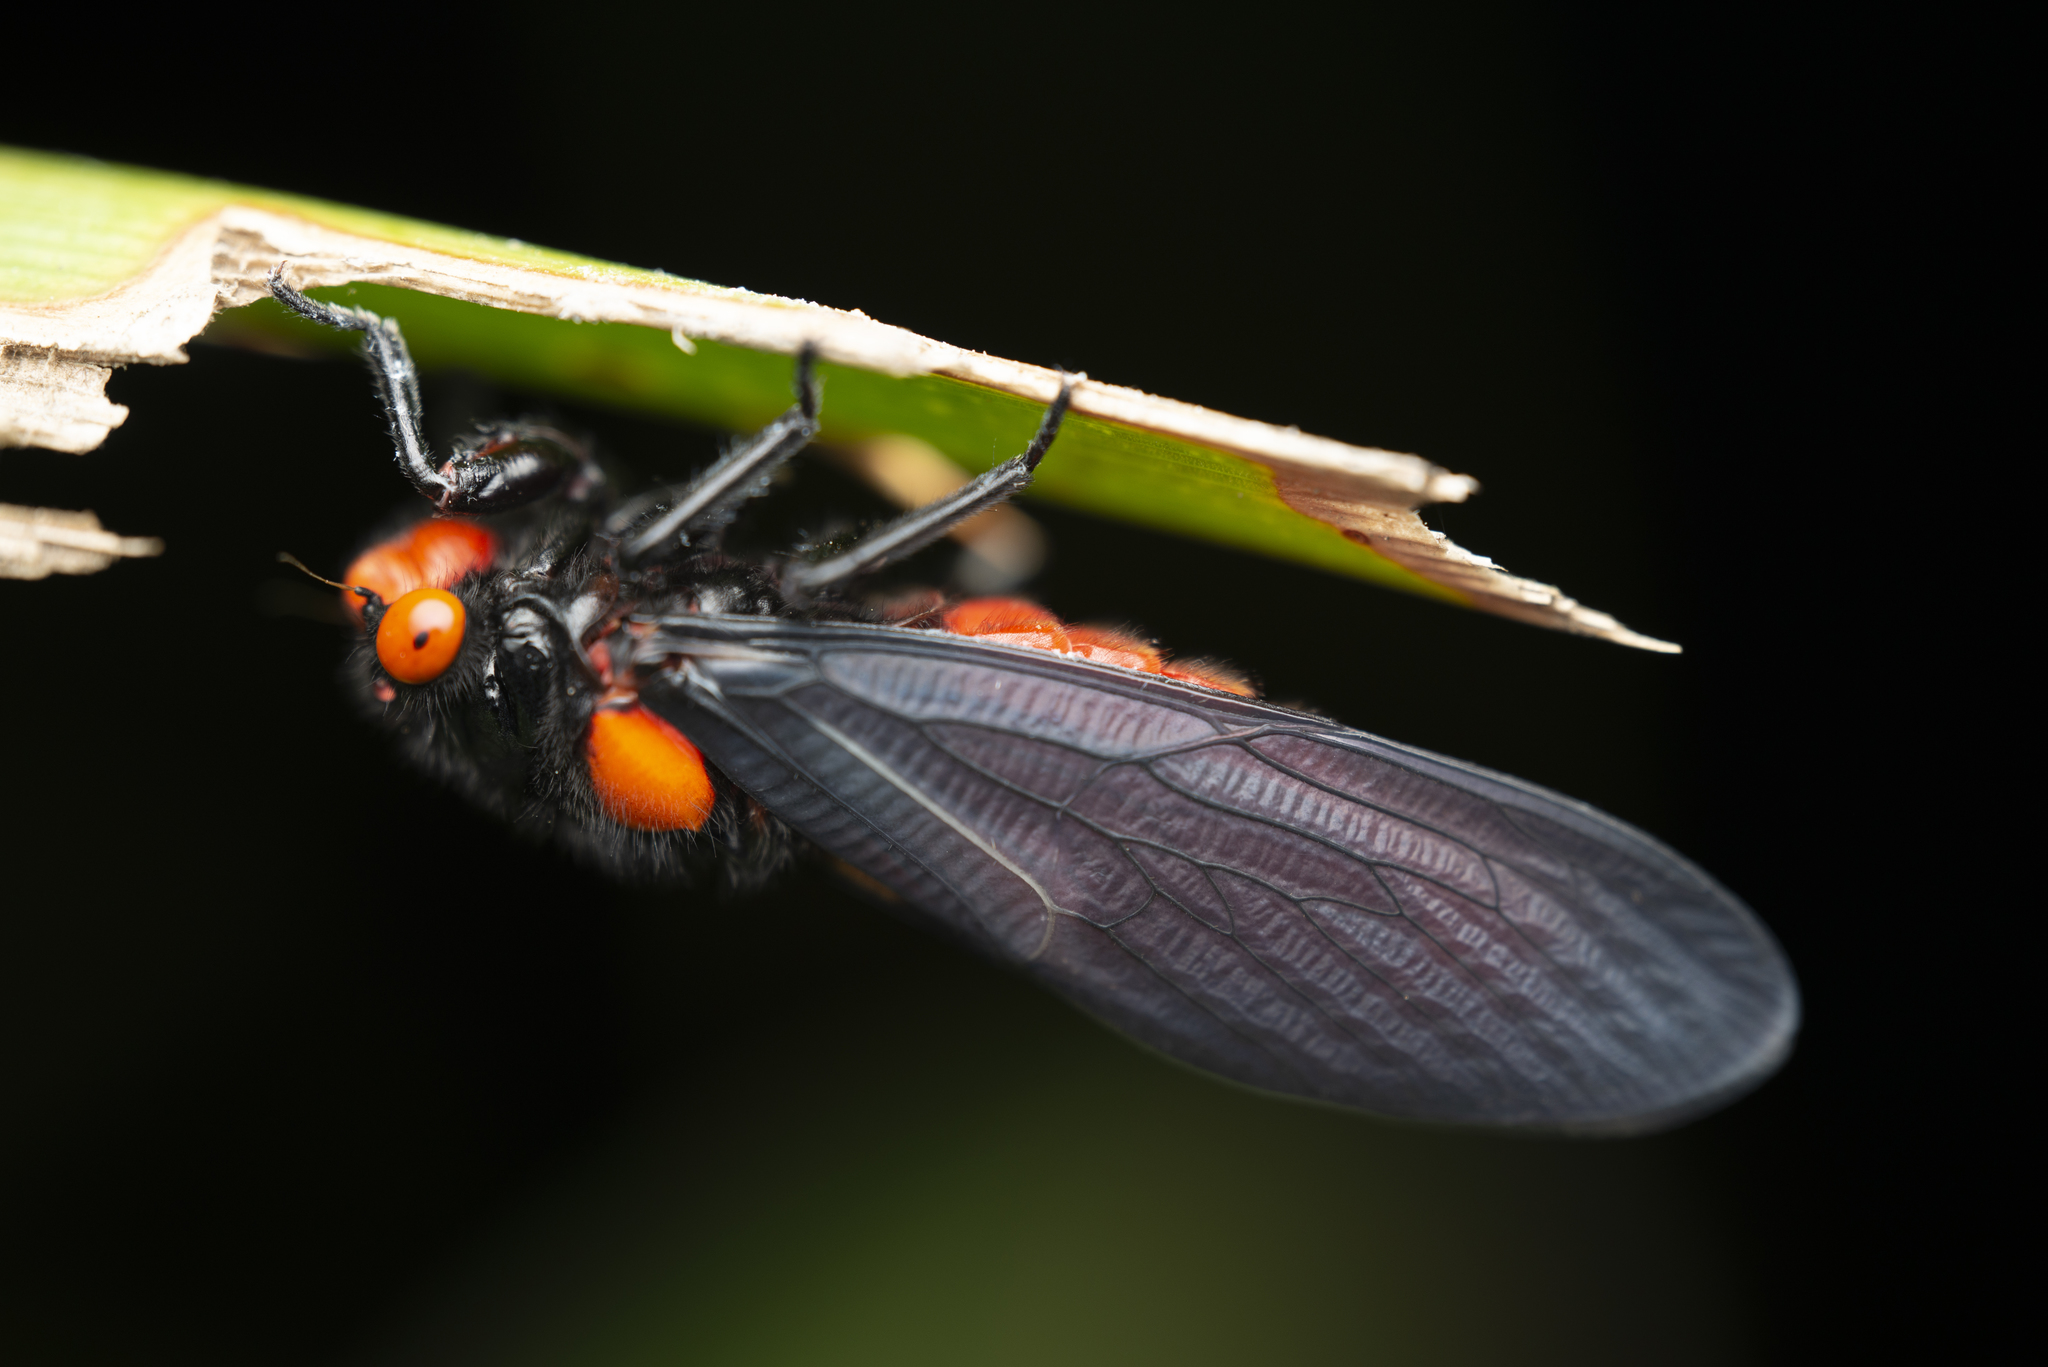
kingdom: Animalia
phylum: Arthropoda
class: Insecta
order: Hemiptera
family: Cicadidae
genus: Huechys
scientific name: Huechys sanguinea
